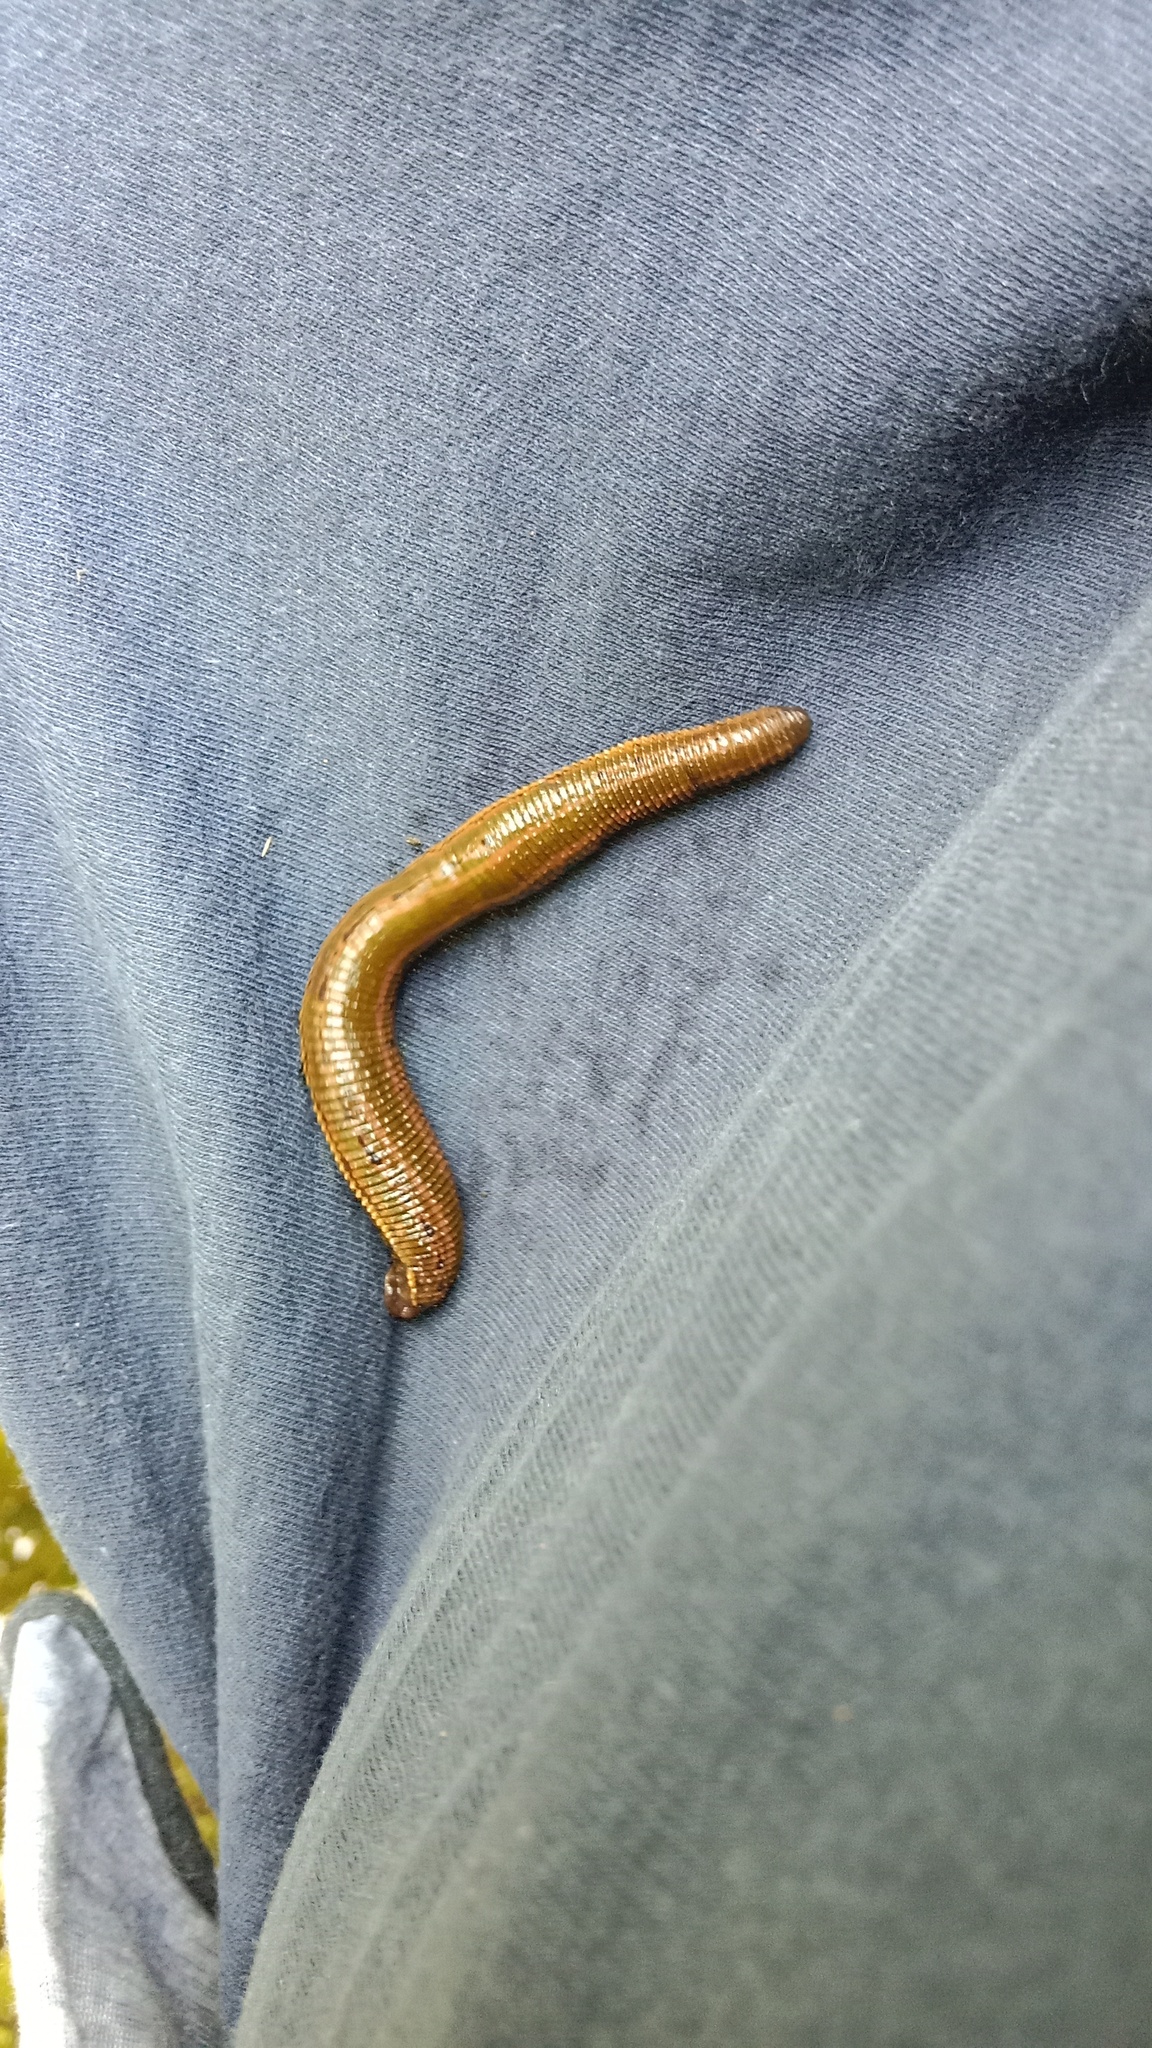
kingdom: Animalia
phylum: Annelida
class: Clitellata
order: Arhynchobdellida
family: Hirudinidae
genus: Hirudo
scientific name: Hirudo medicinalis
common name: Medicinal leech
